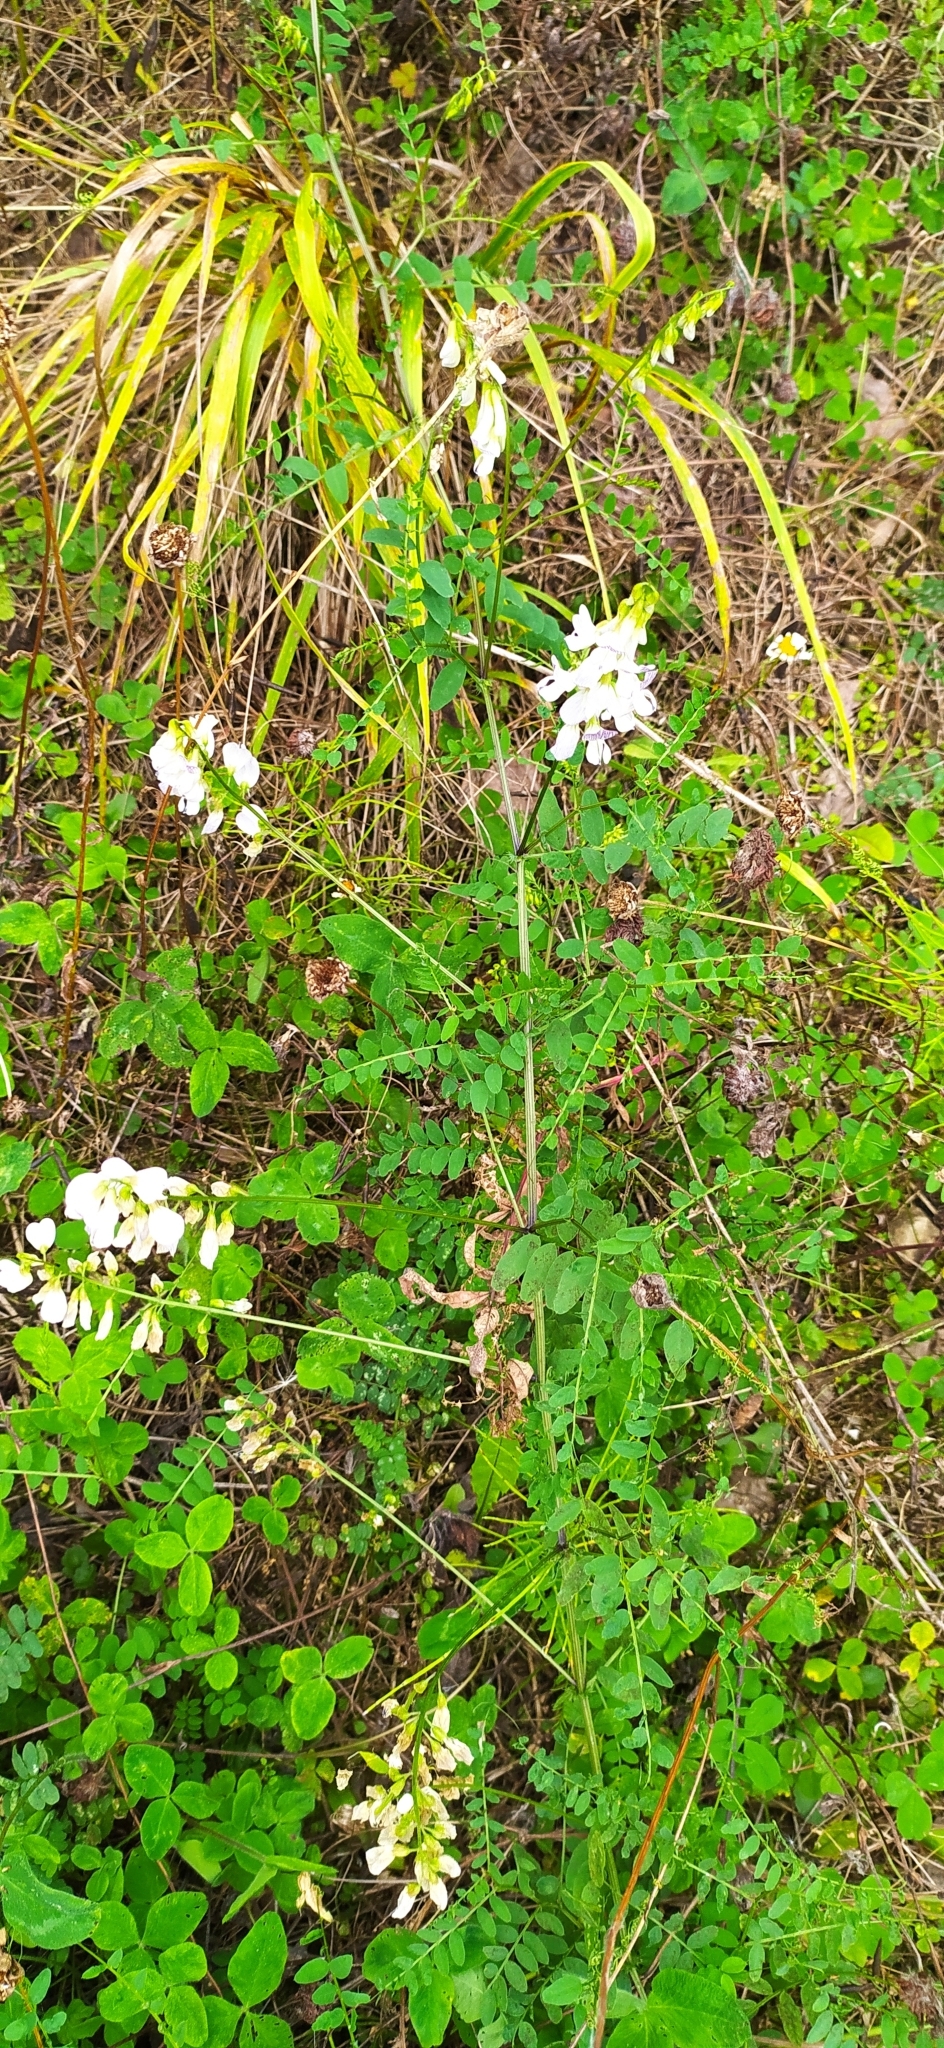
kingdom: Plantae
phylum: Tracheophyta
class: Magnoliopsida
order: Fabales
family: Fabaceae
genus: Vicia
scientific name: Vicia sylvatica
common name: Wood vetch
